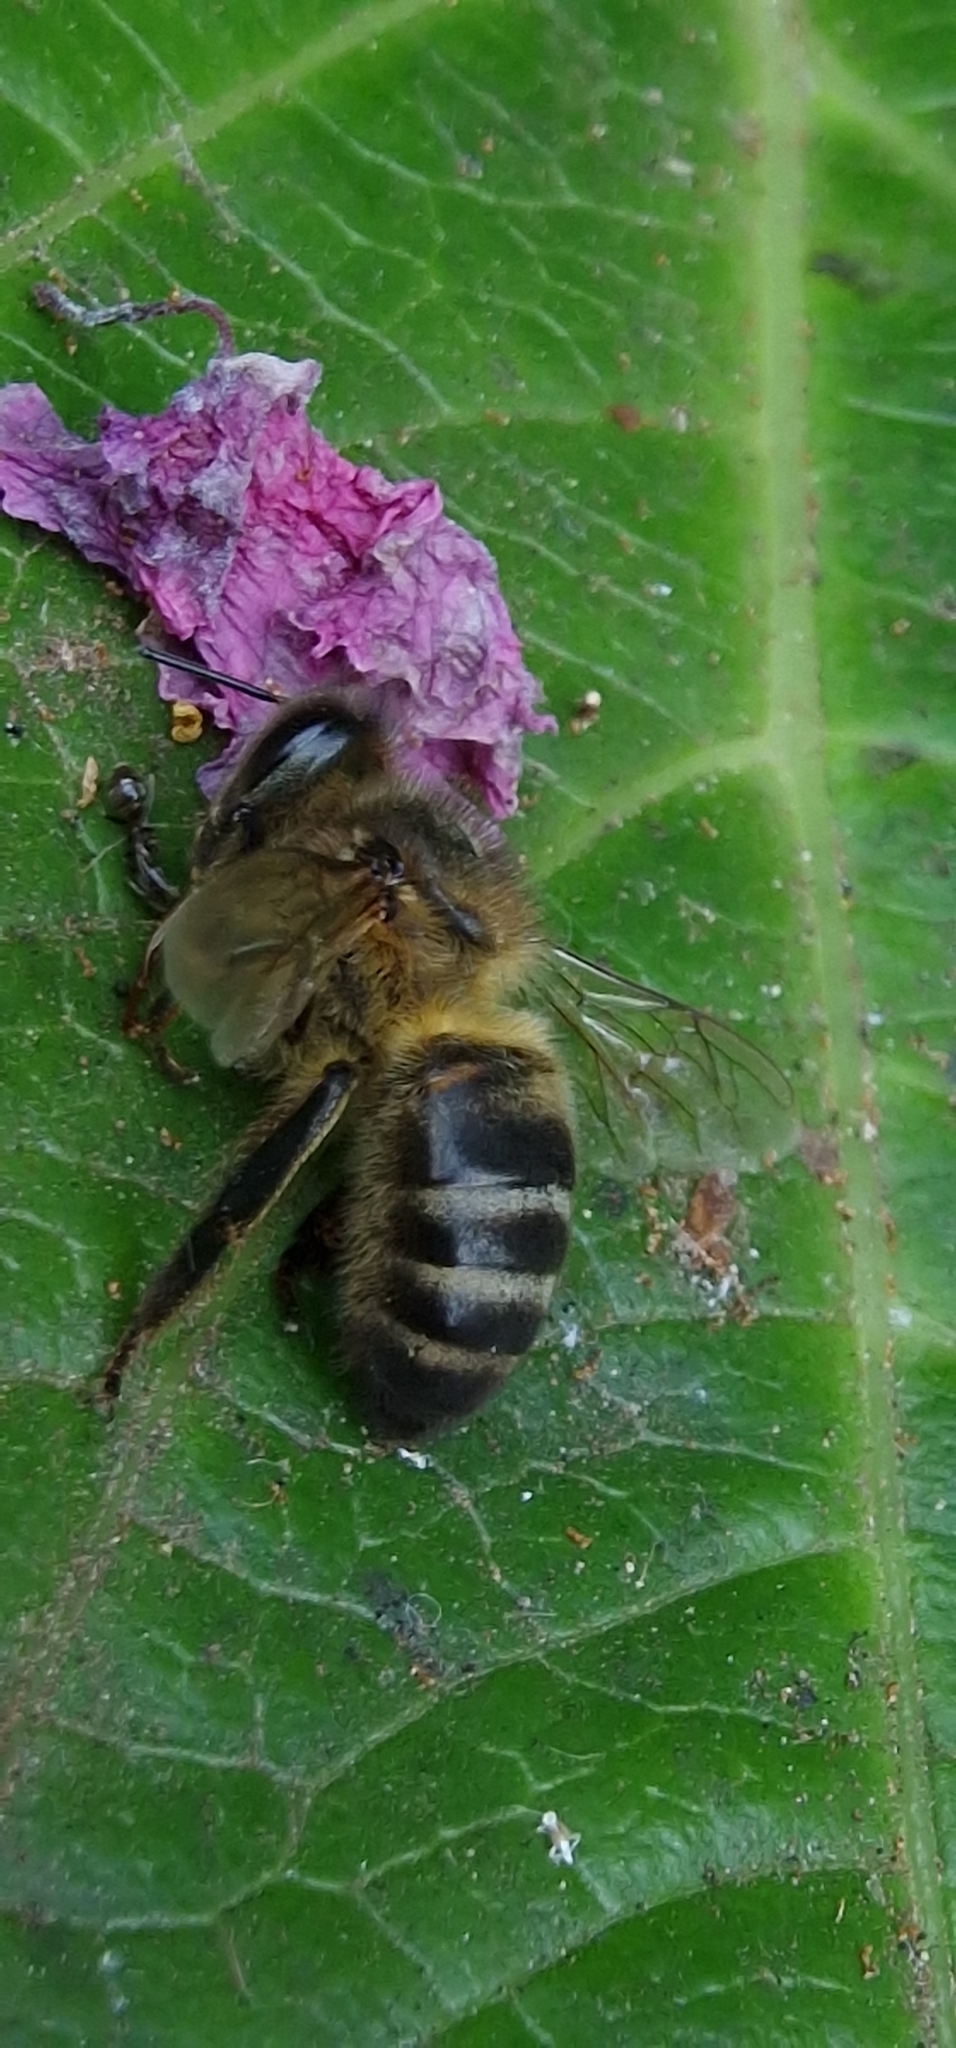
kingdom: Animalia
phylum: Arthropoda
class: Insecta
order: Hymenoptera
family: Apidae
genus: Apis
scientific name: Apis mellifera
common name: Honey bee
